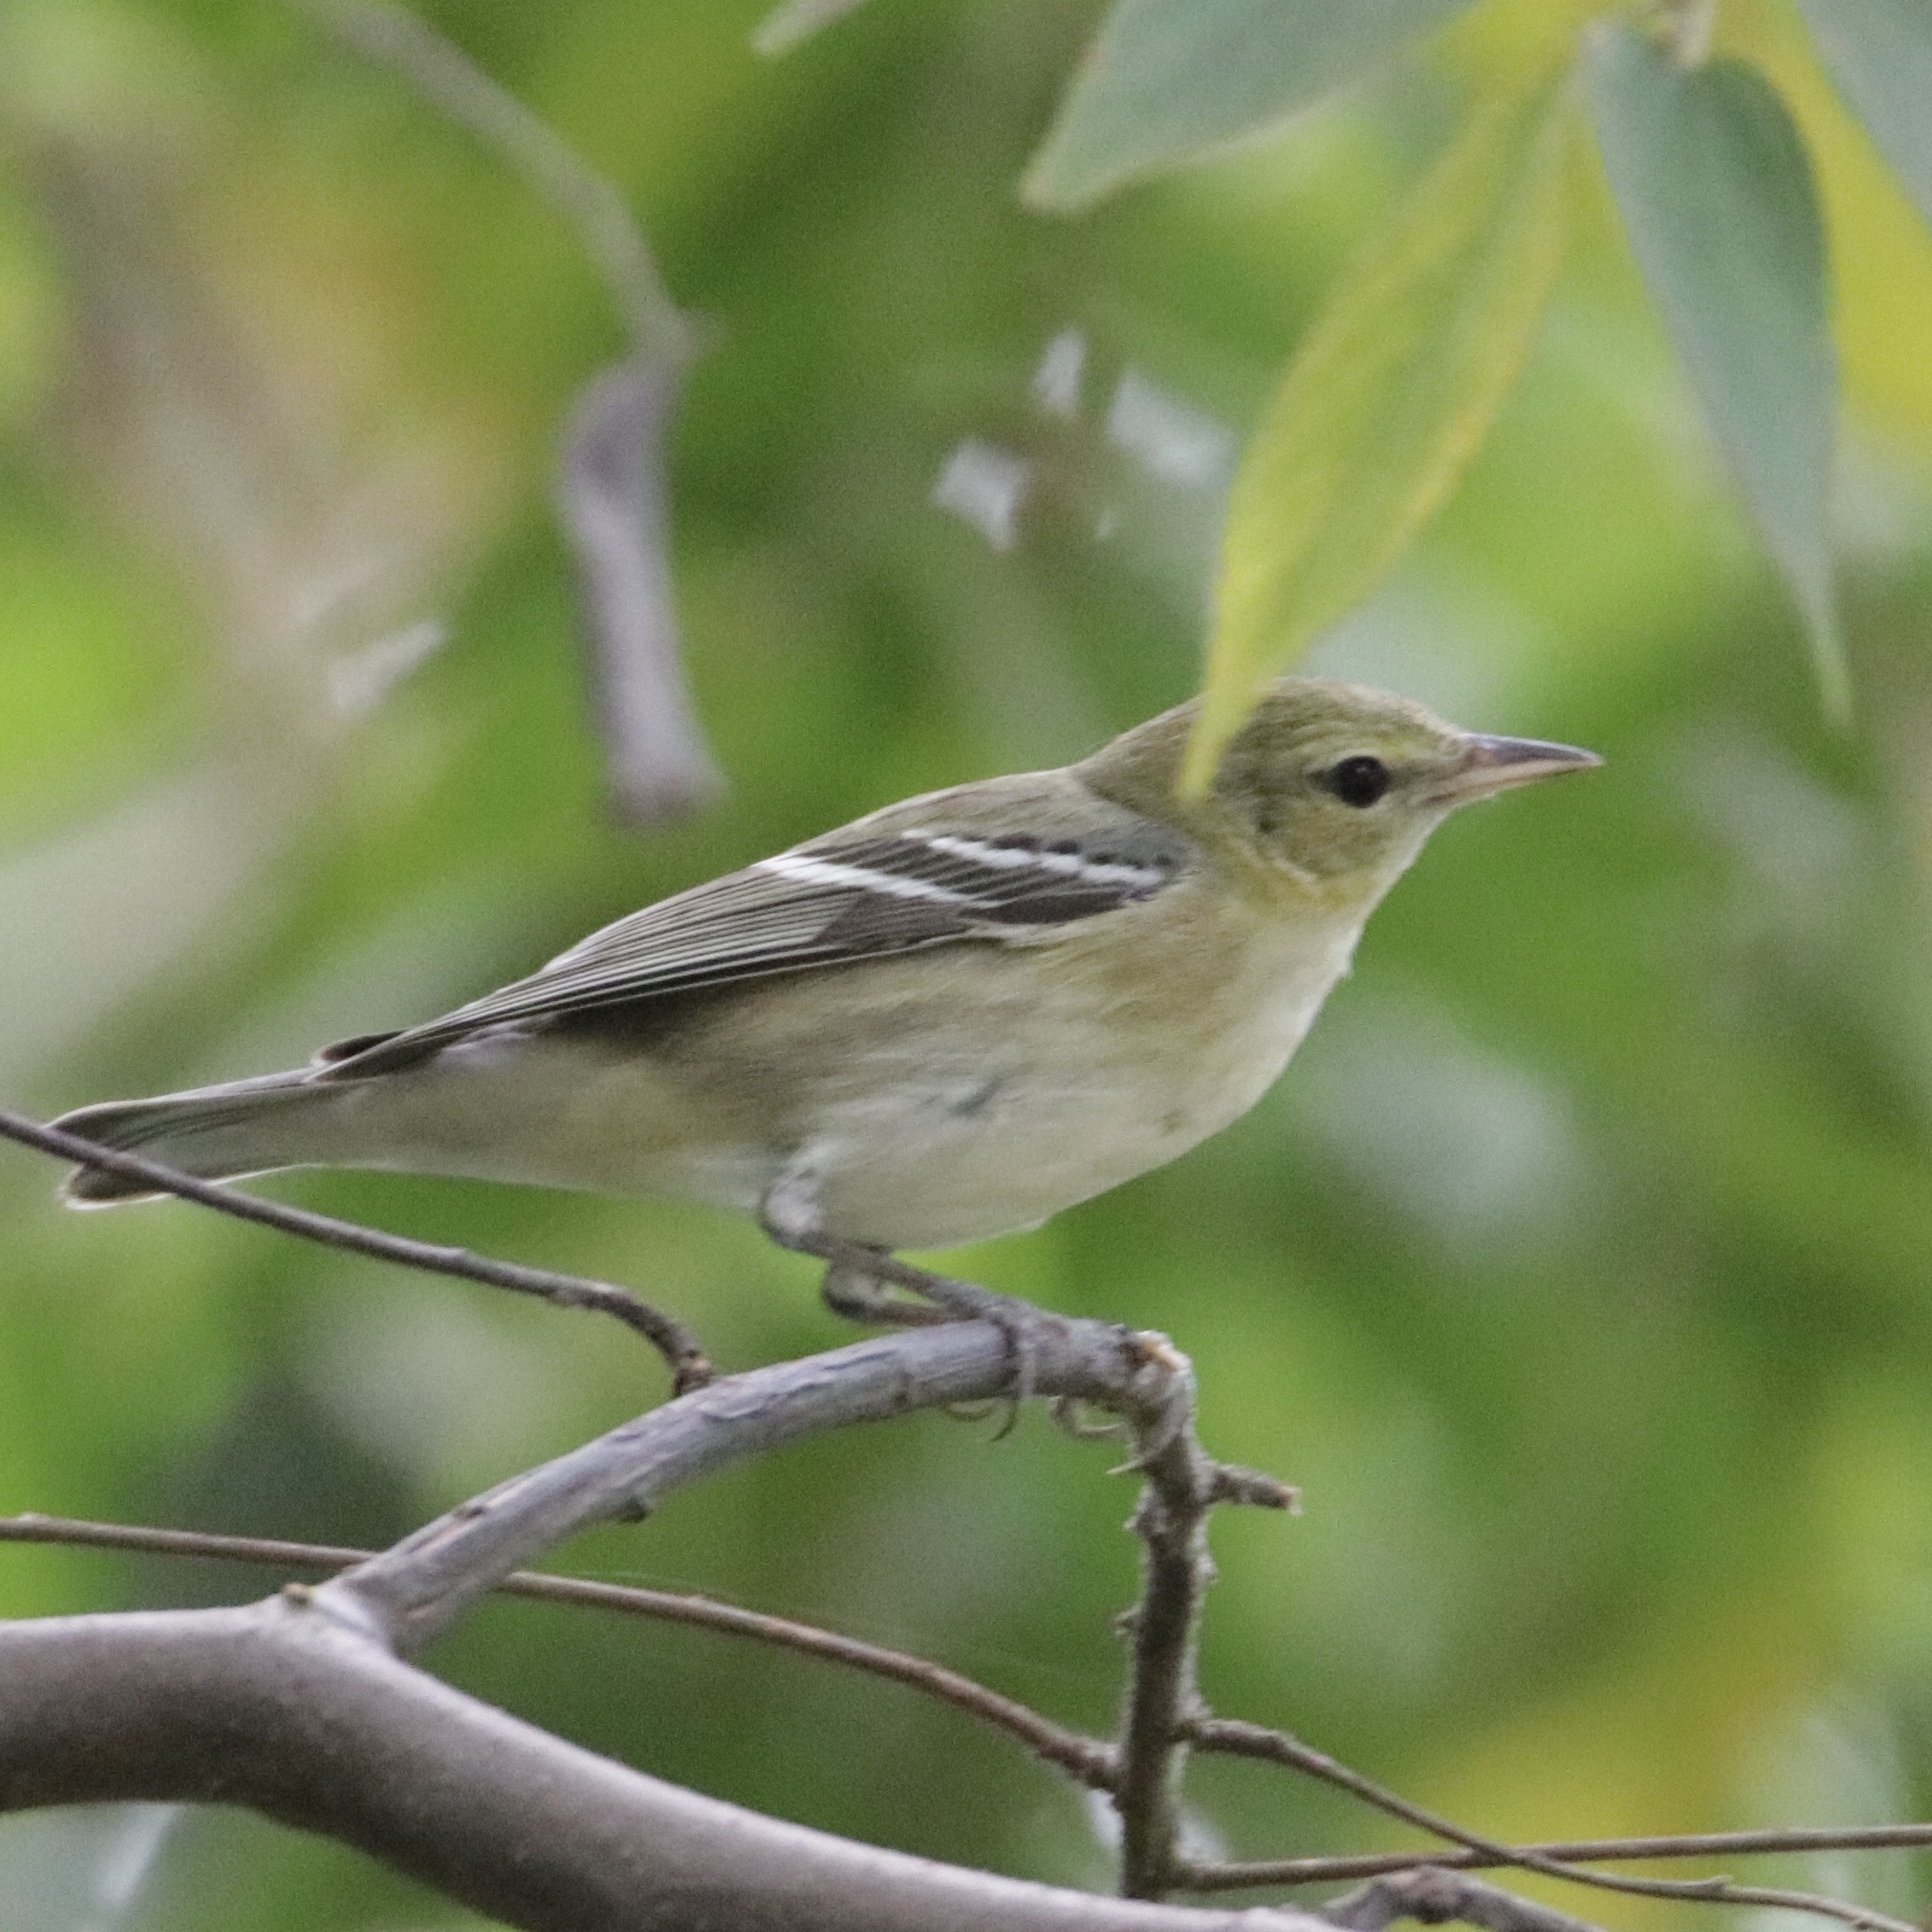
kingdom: Animalia
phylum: Chordata
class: Aves
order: Passeriformes
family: Parulidae
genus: Setophaga
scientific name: Setophaga castanea
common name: Bay-breasted warbler
